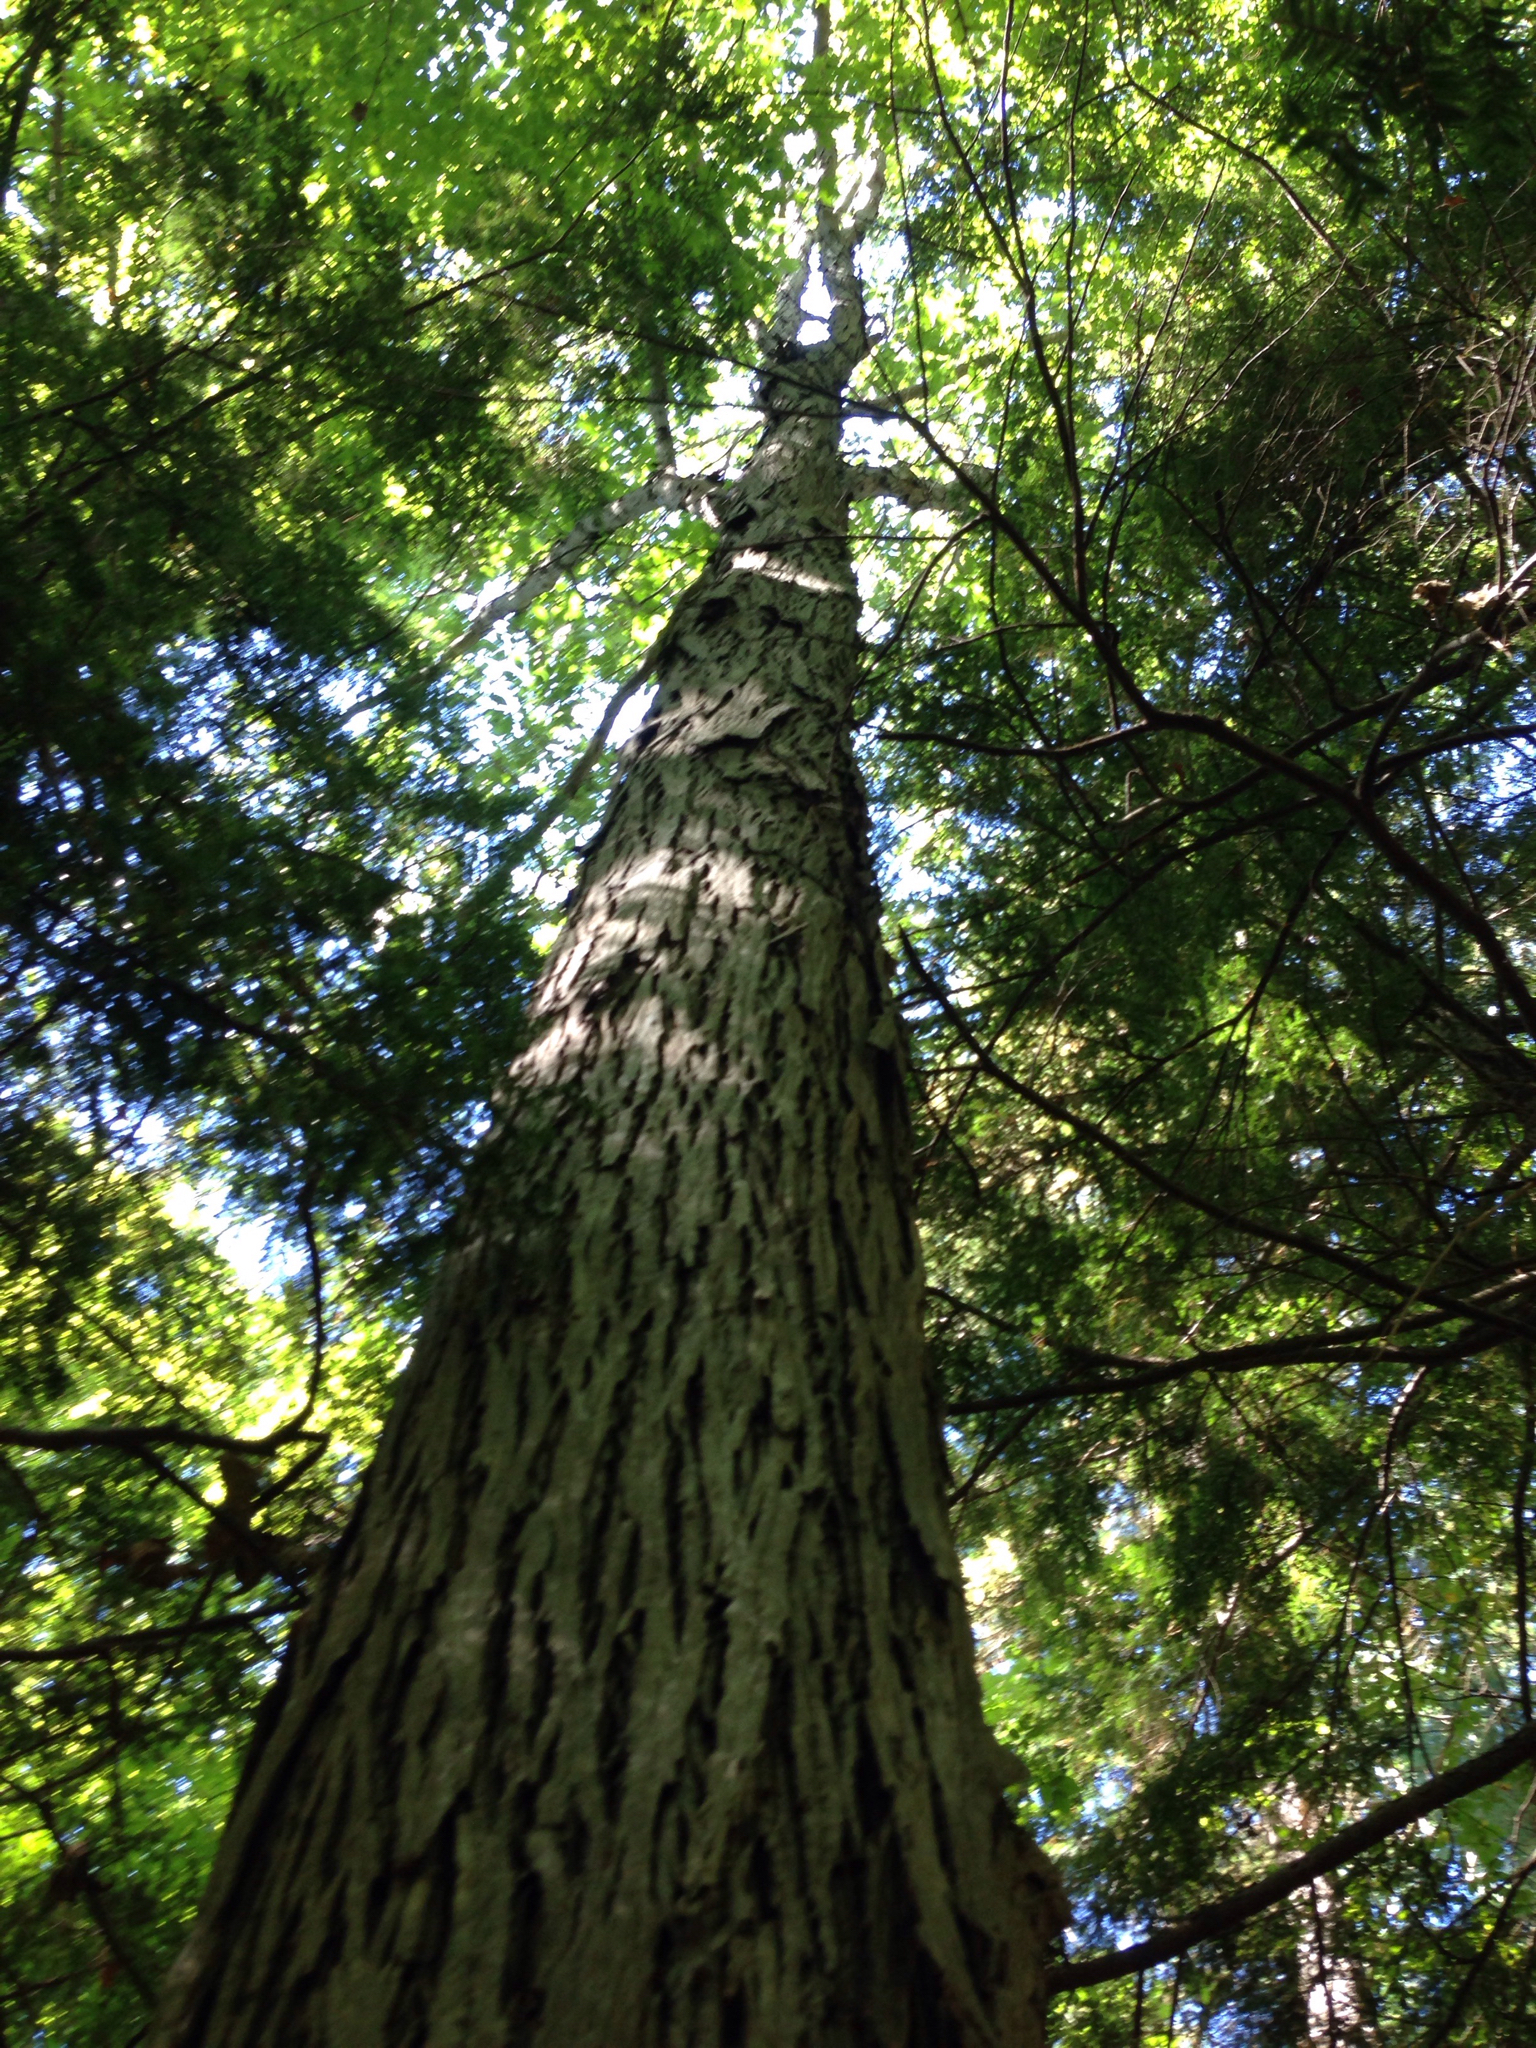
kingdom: Plantae
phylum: Tracheophyta
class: Magnoliopsida
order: Fagales
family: Juglandaceae
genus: Carya
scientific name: Carya ovata
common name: Shagbark hickory
